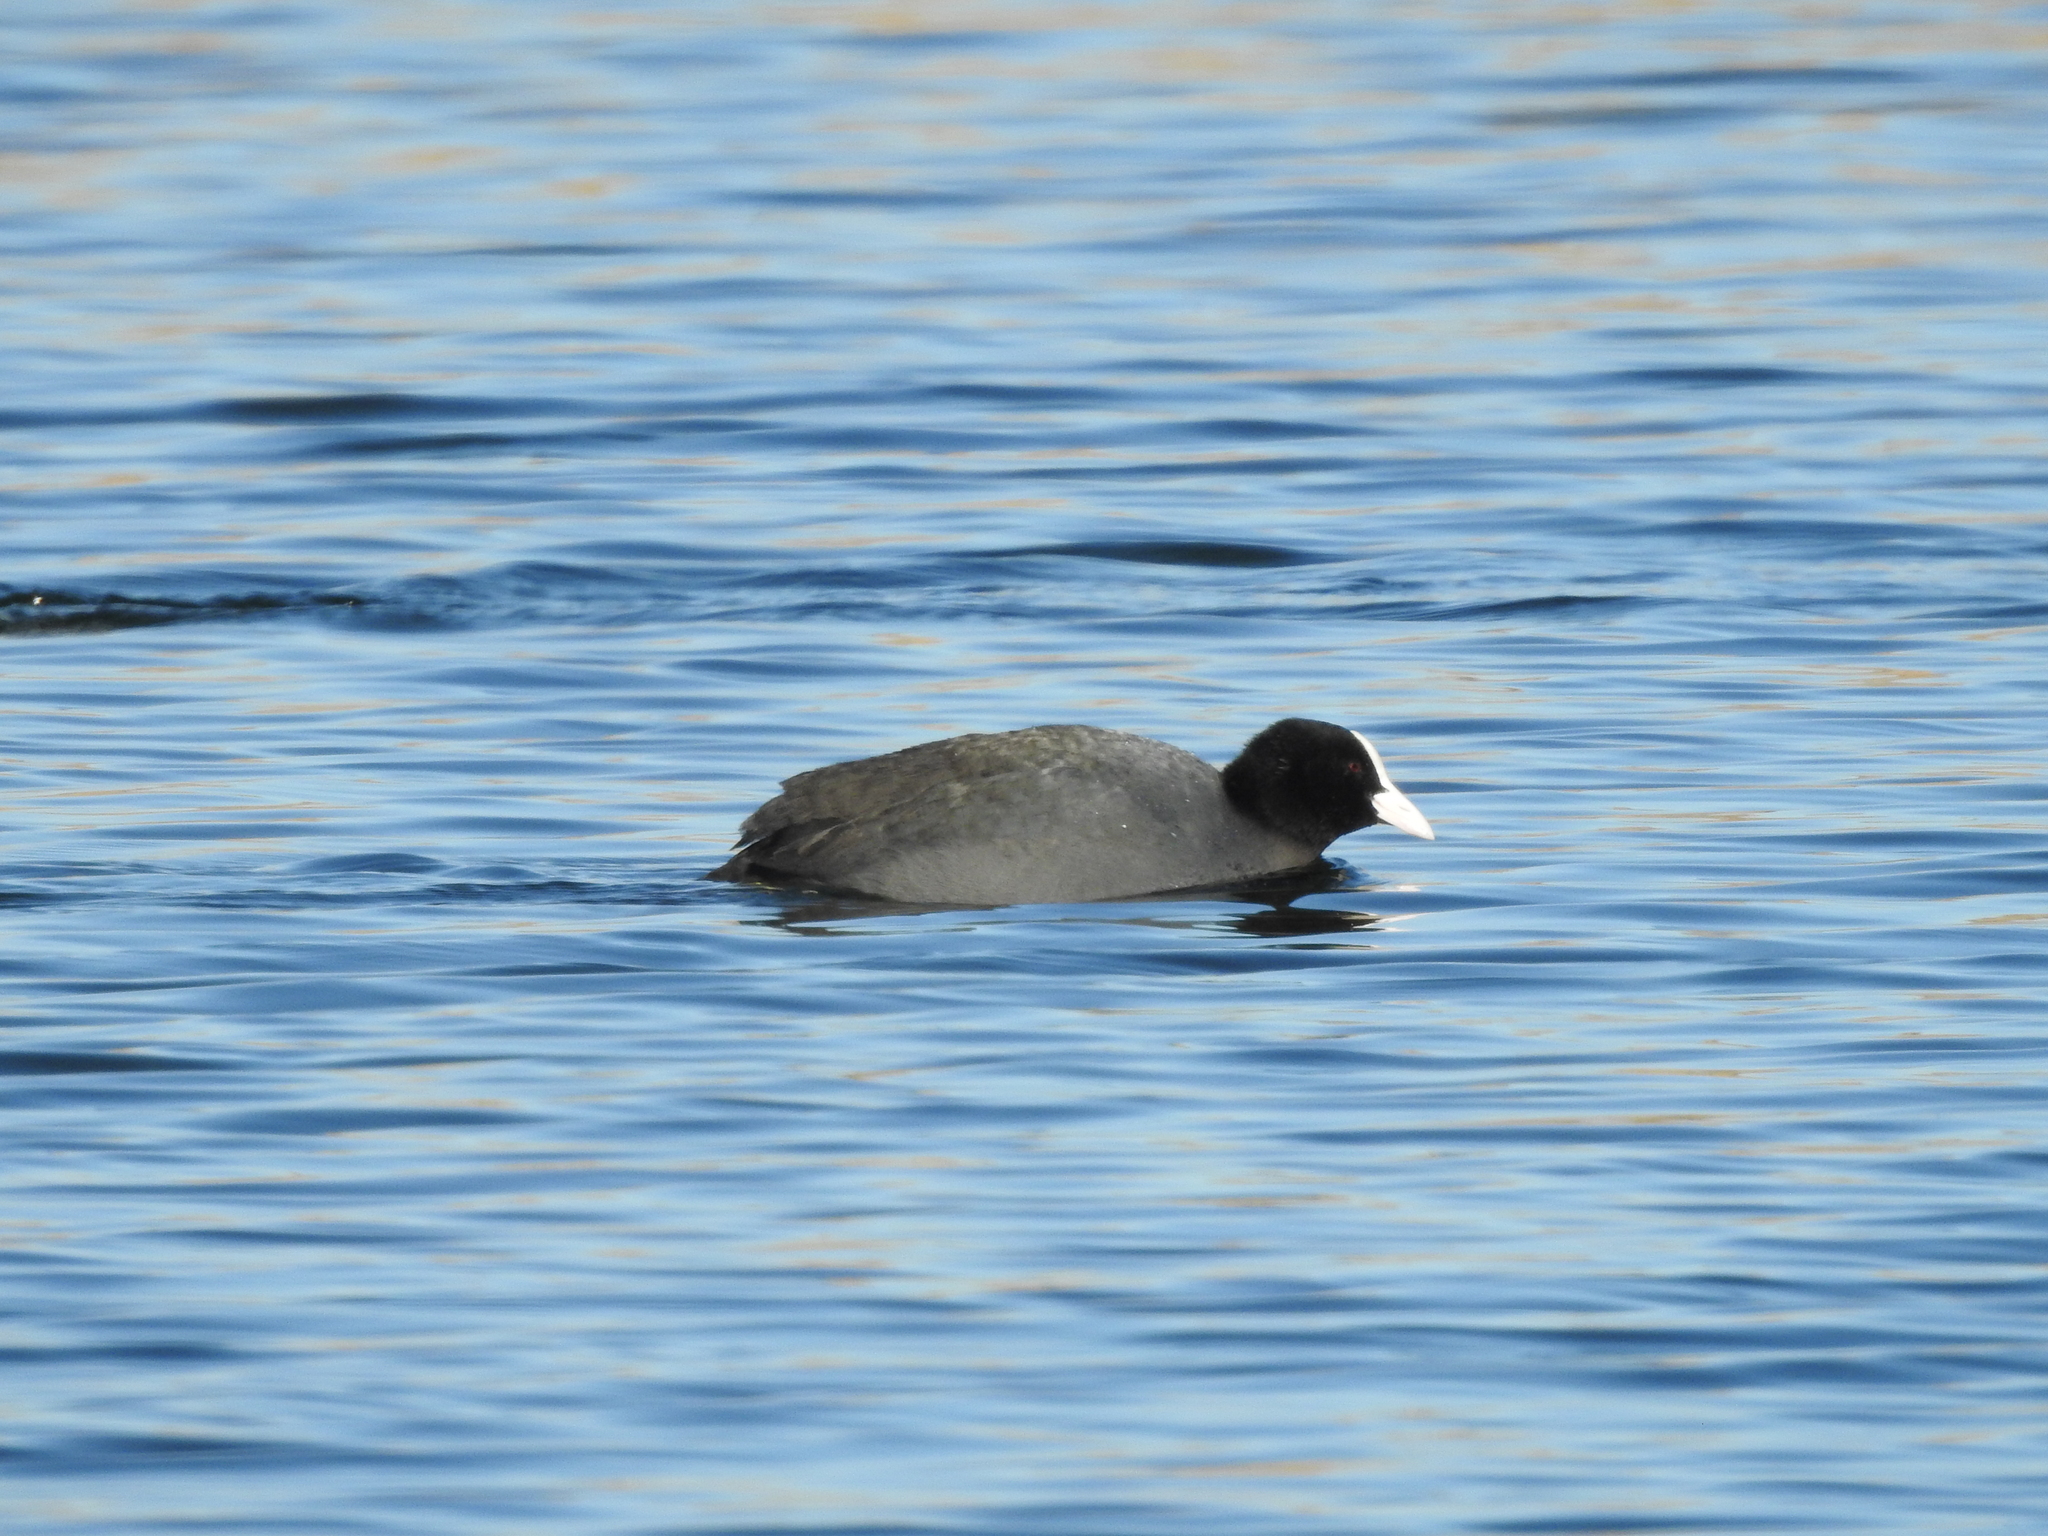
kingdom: Animalia
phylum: Chordata
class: Aves
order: Gruiformes
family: Rallidae
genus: Fulica
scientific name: Fulica atra
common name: Eurasian coot
